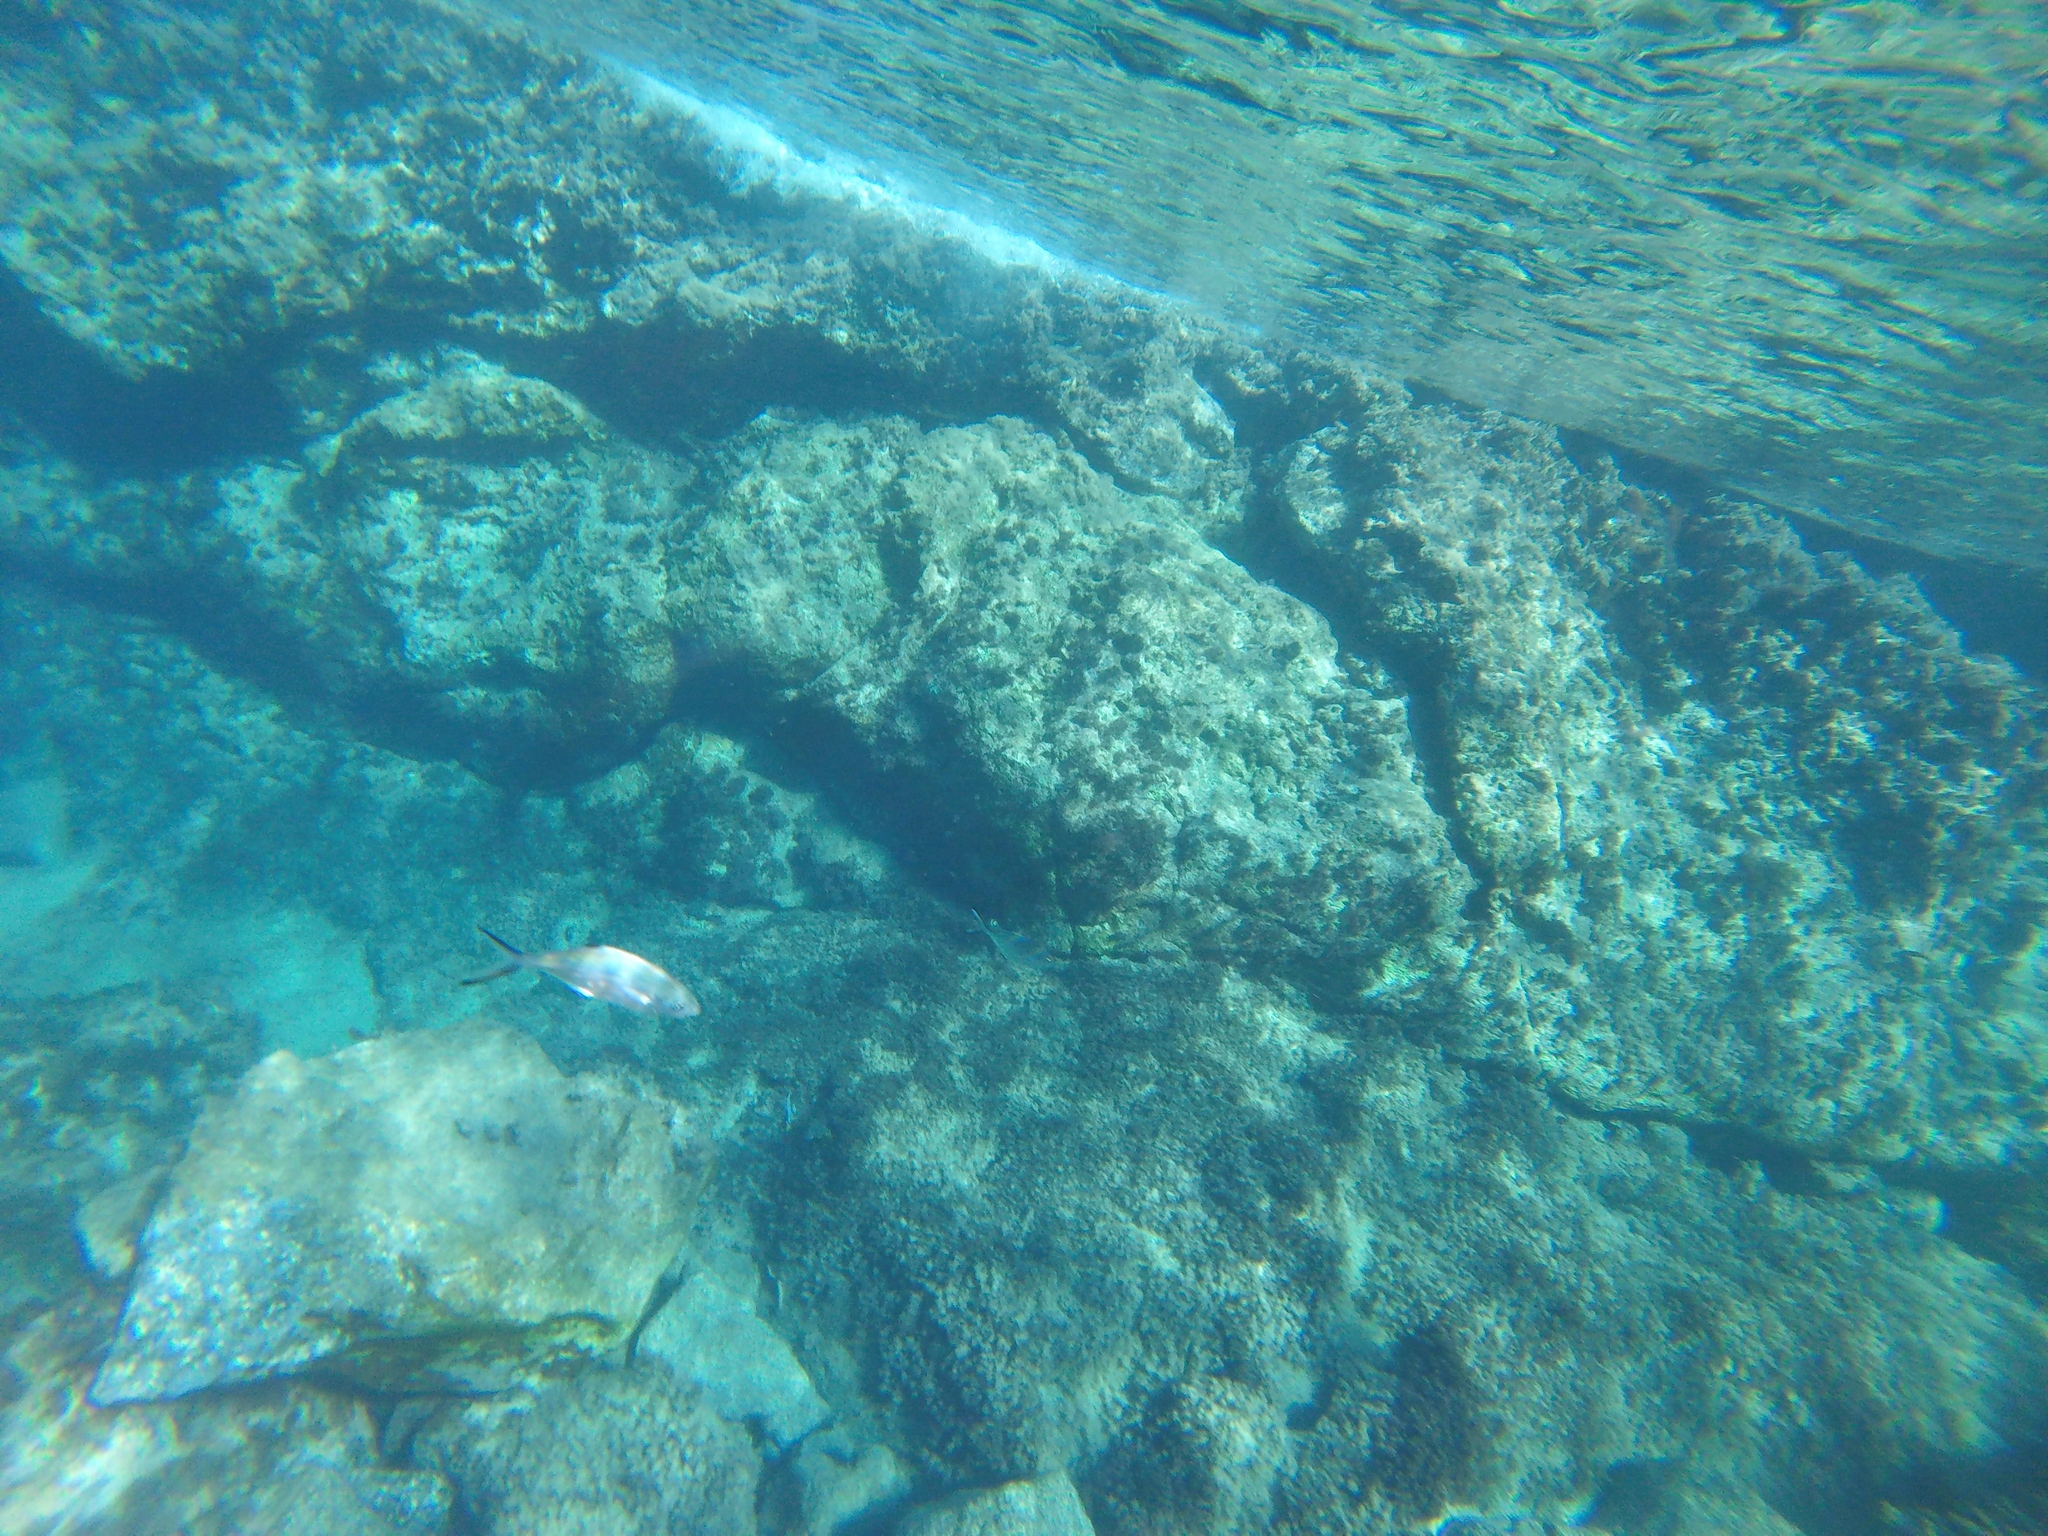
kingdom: Animalia
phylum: Chordata
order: Perciformes
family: Carangidae
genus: Trachinotus
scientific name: Trachinotus ovatus
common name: Pompano
